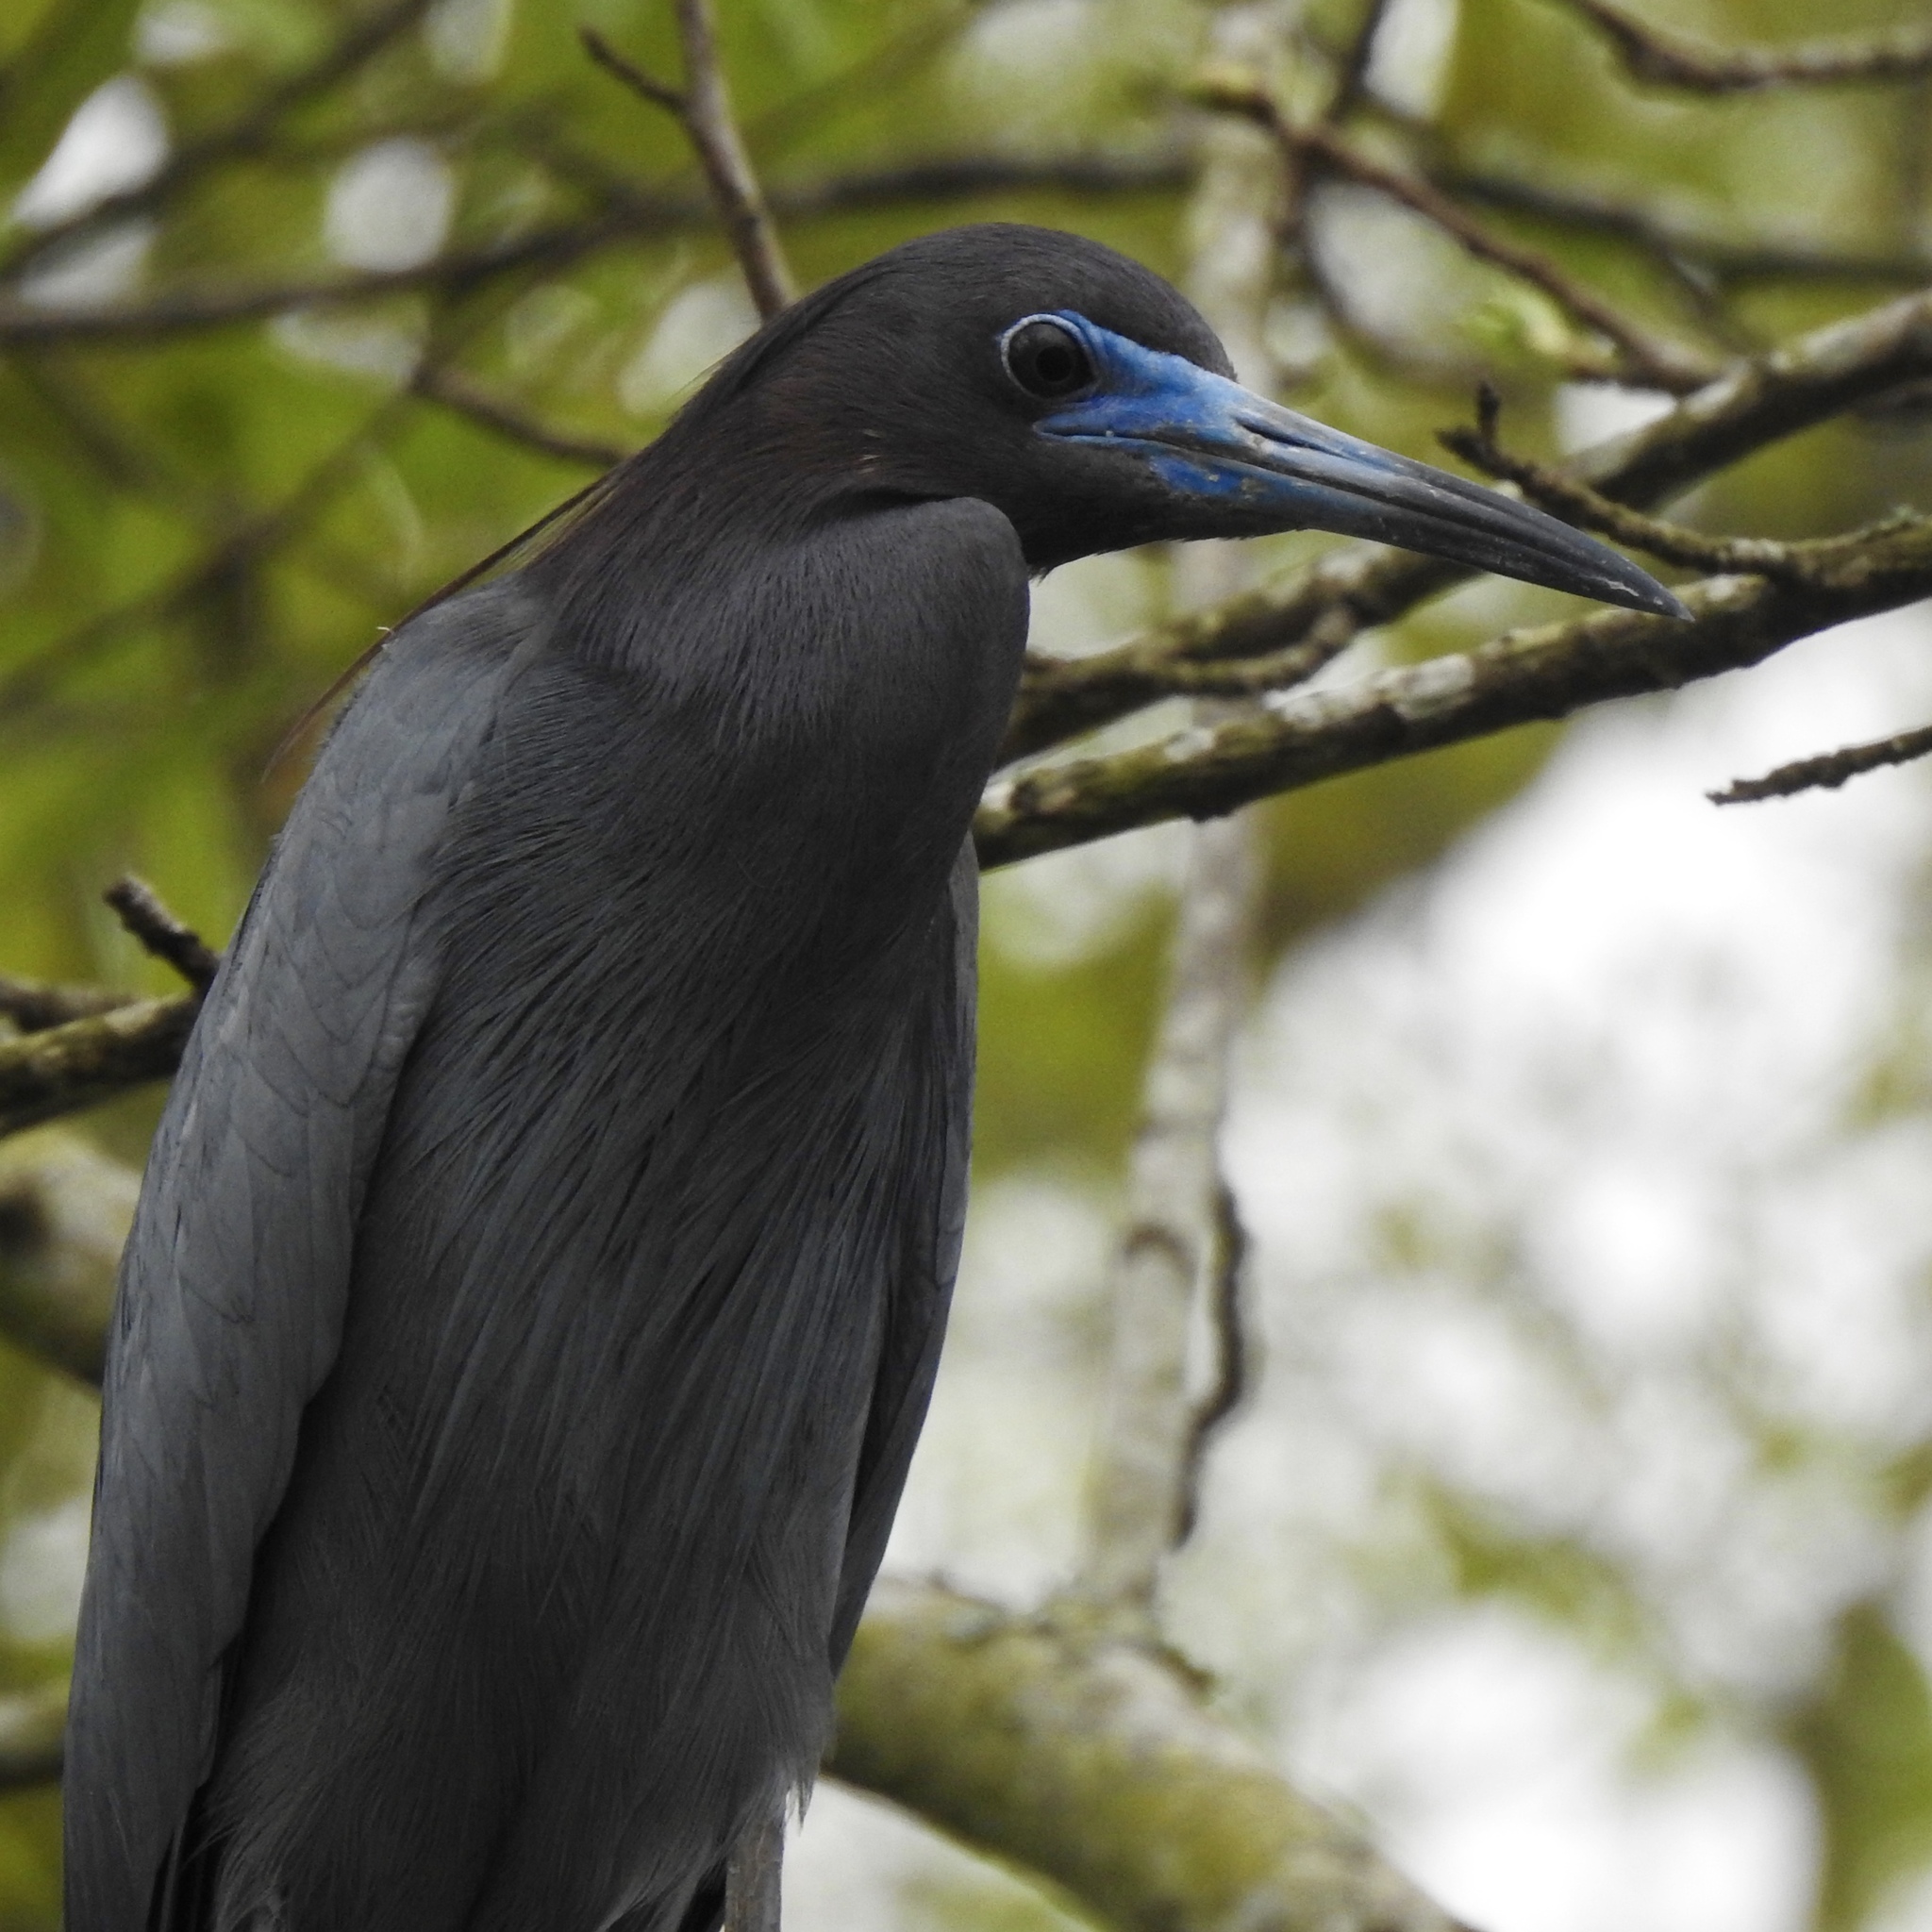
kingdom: Animalia
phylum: Chordata
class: Aves
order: Pelecaniformes
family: Ardeidae
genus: Egretta
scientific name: Egretta caerulea
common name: Little blue heron
